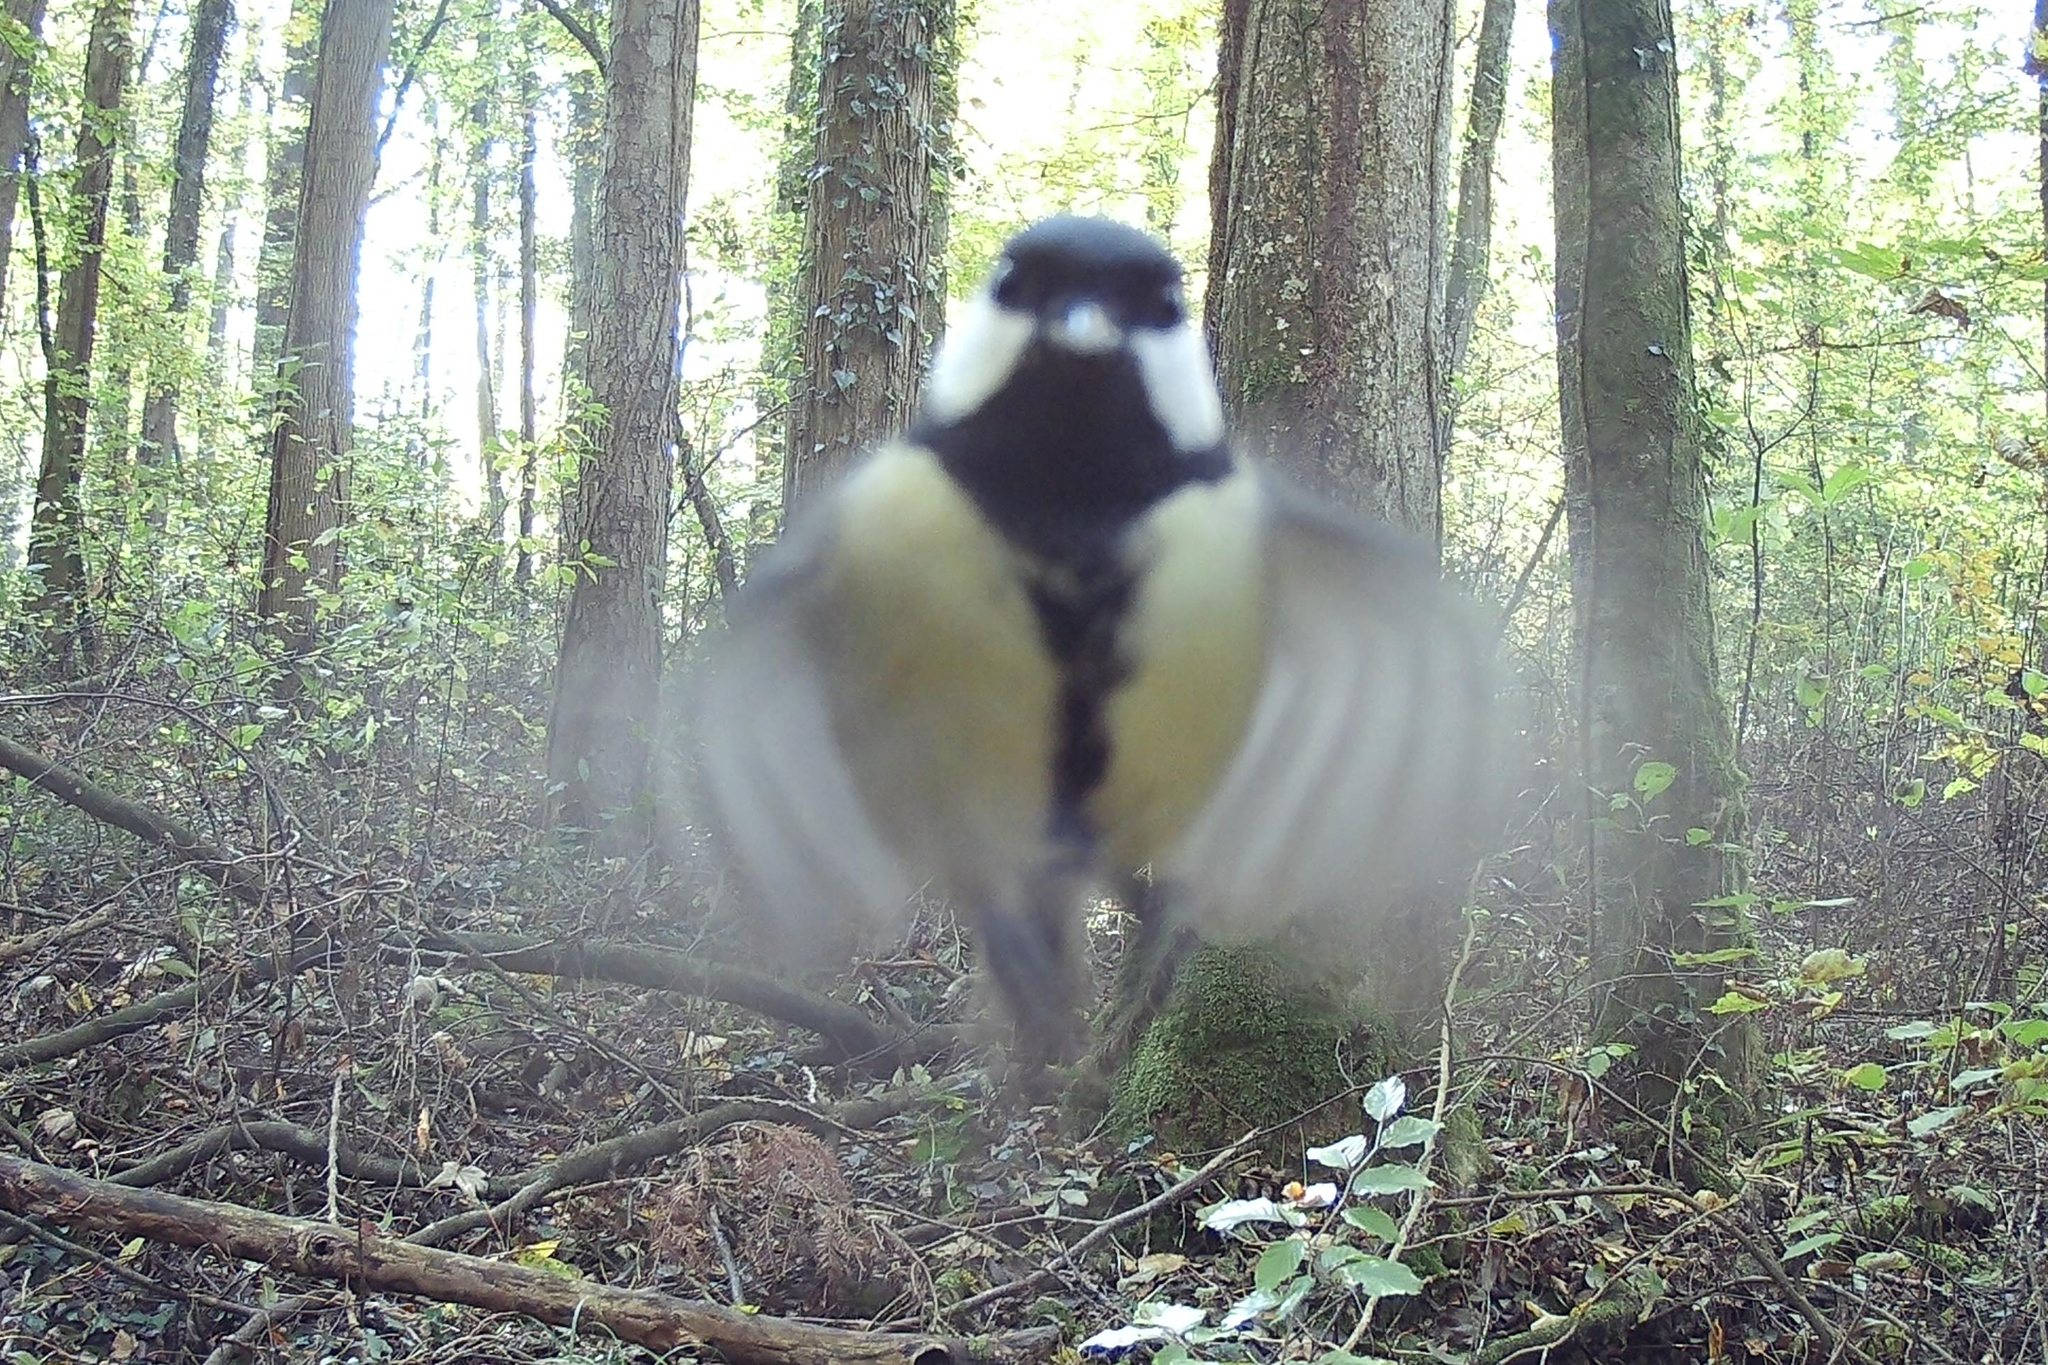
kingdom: Animalia
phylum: Chordata
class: Aves
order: Passeriformes
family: Paridae
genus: Parus
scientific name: Parus major
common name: Great tit
